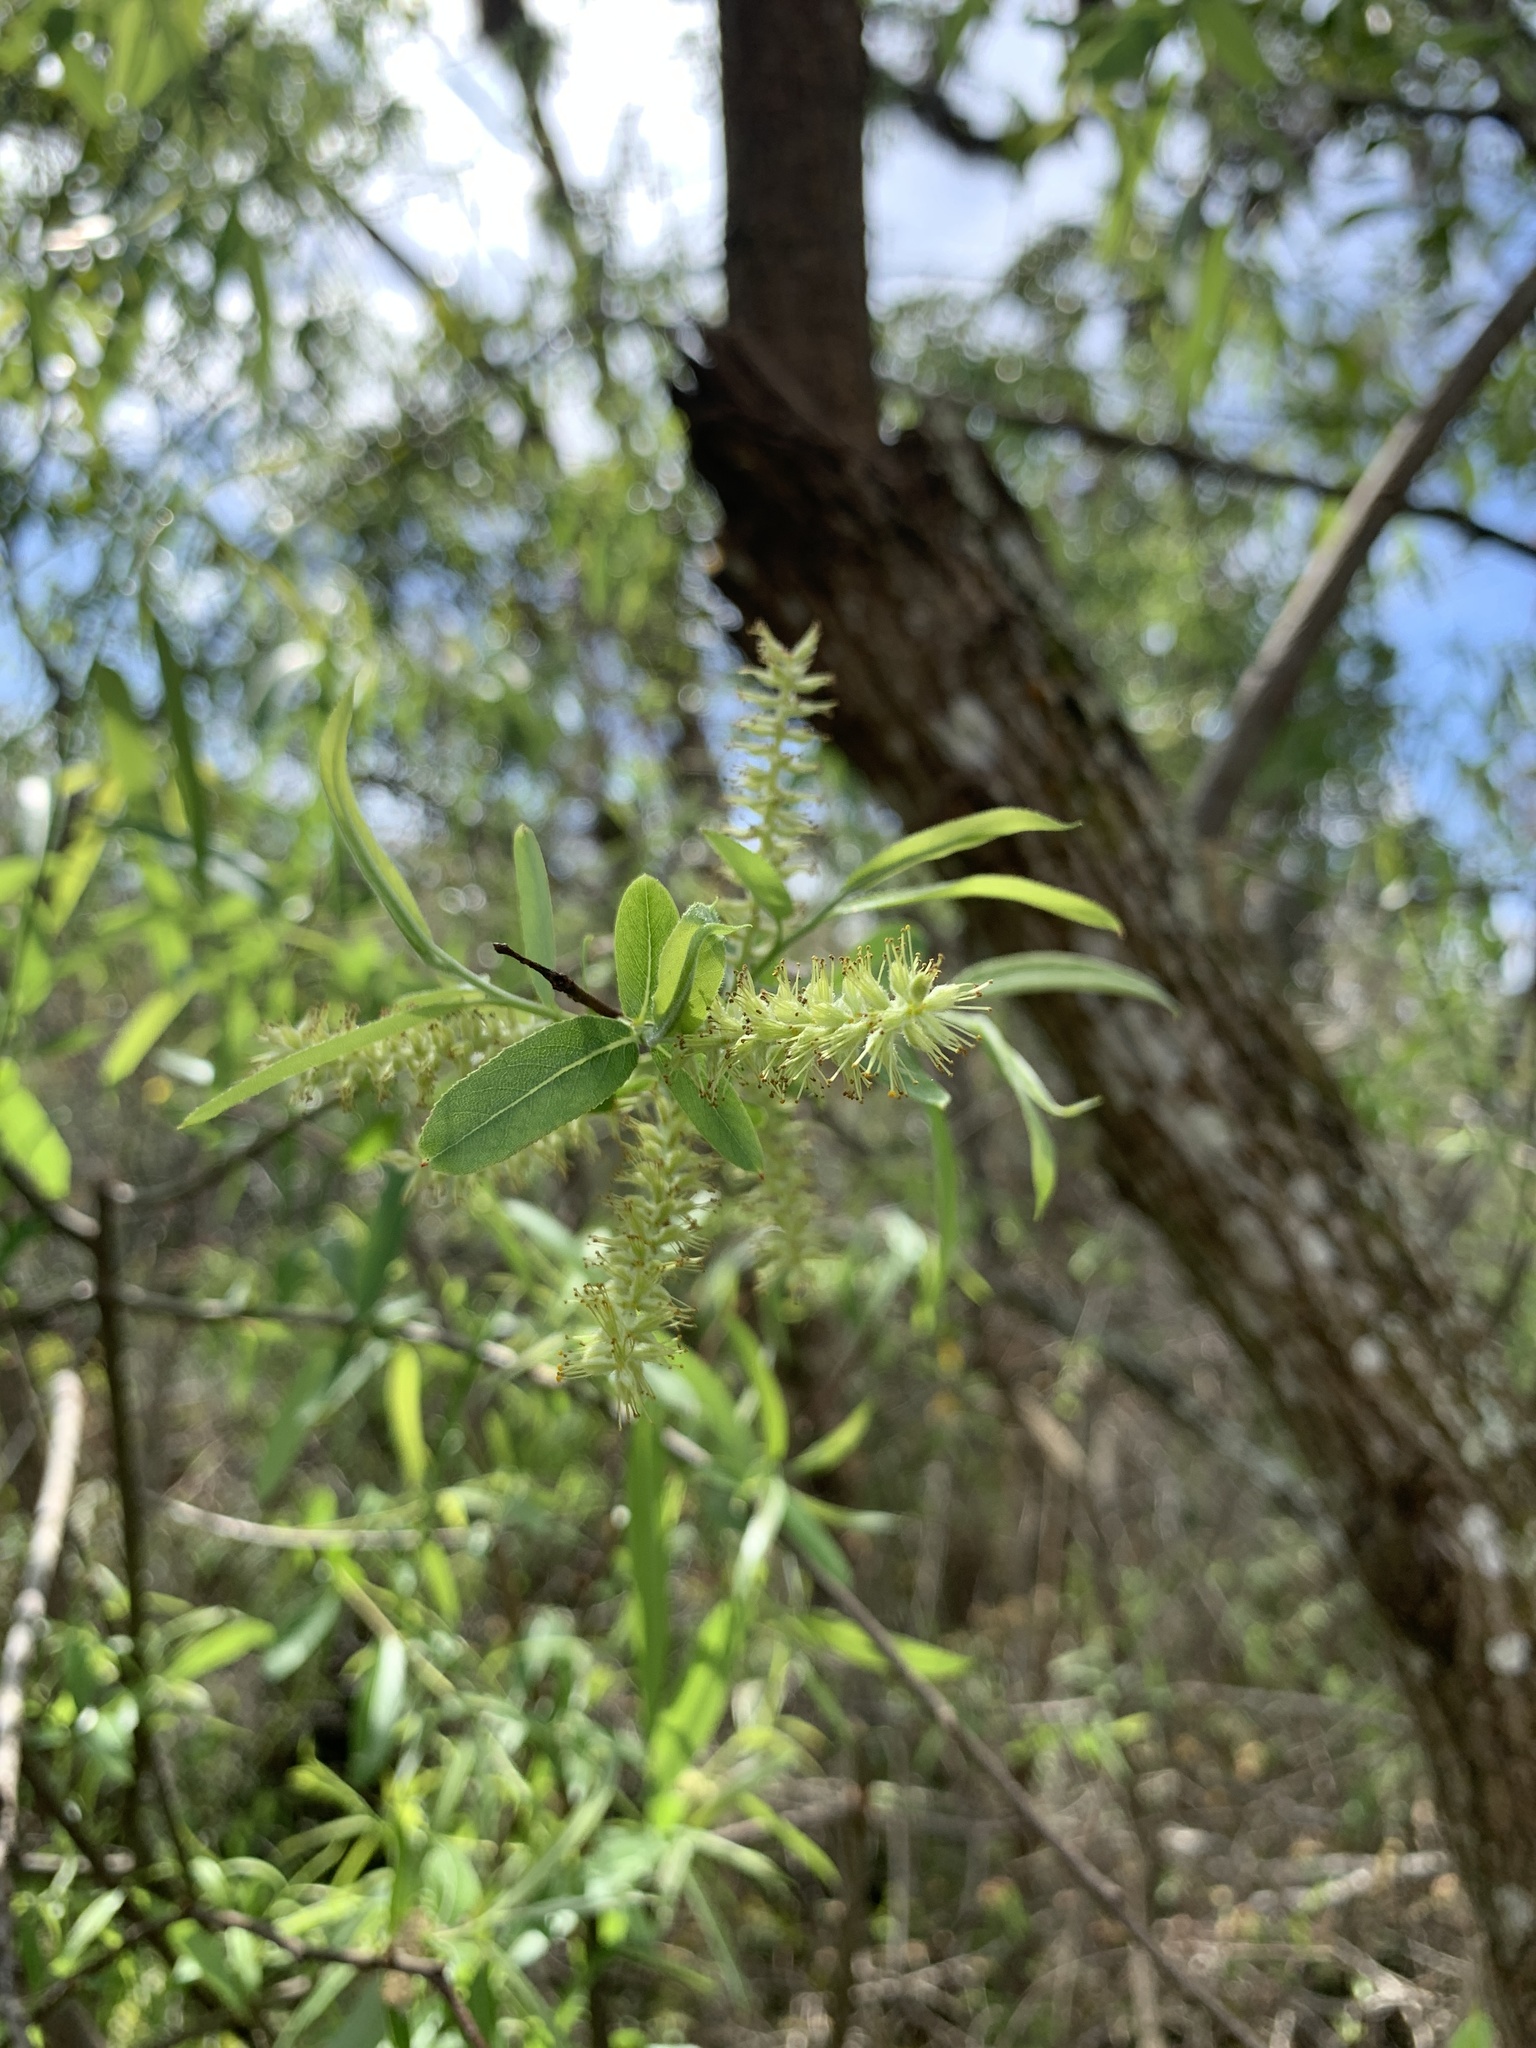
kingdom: Plantae
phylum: Tracheophyta
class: Magnoliopsida
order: Malpighiales
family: Salicaceae
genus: Salix
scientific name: Salix caroliniana
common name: Carolina willow
